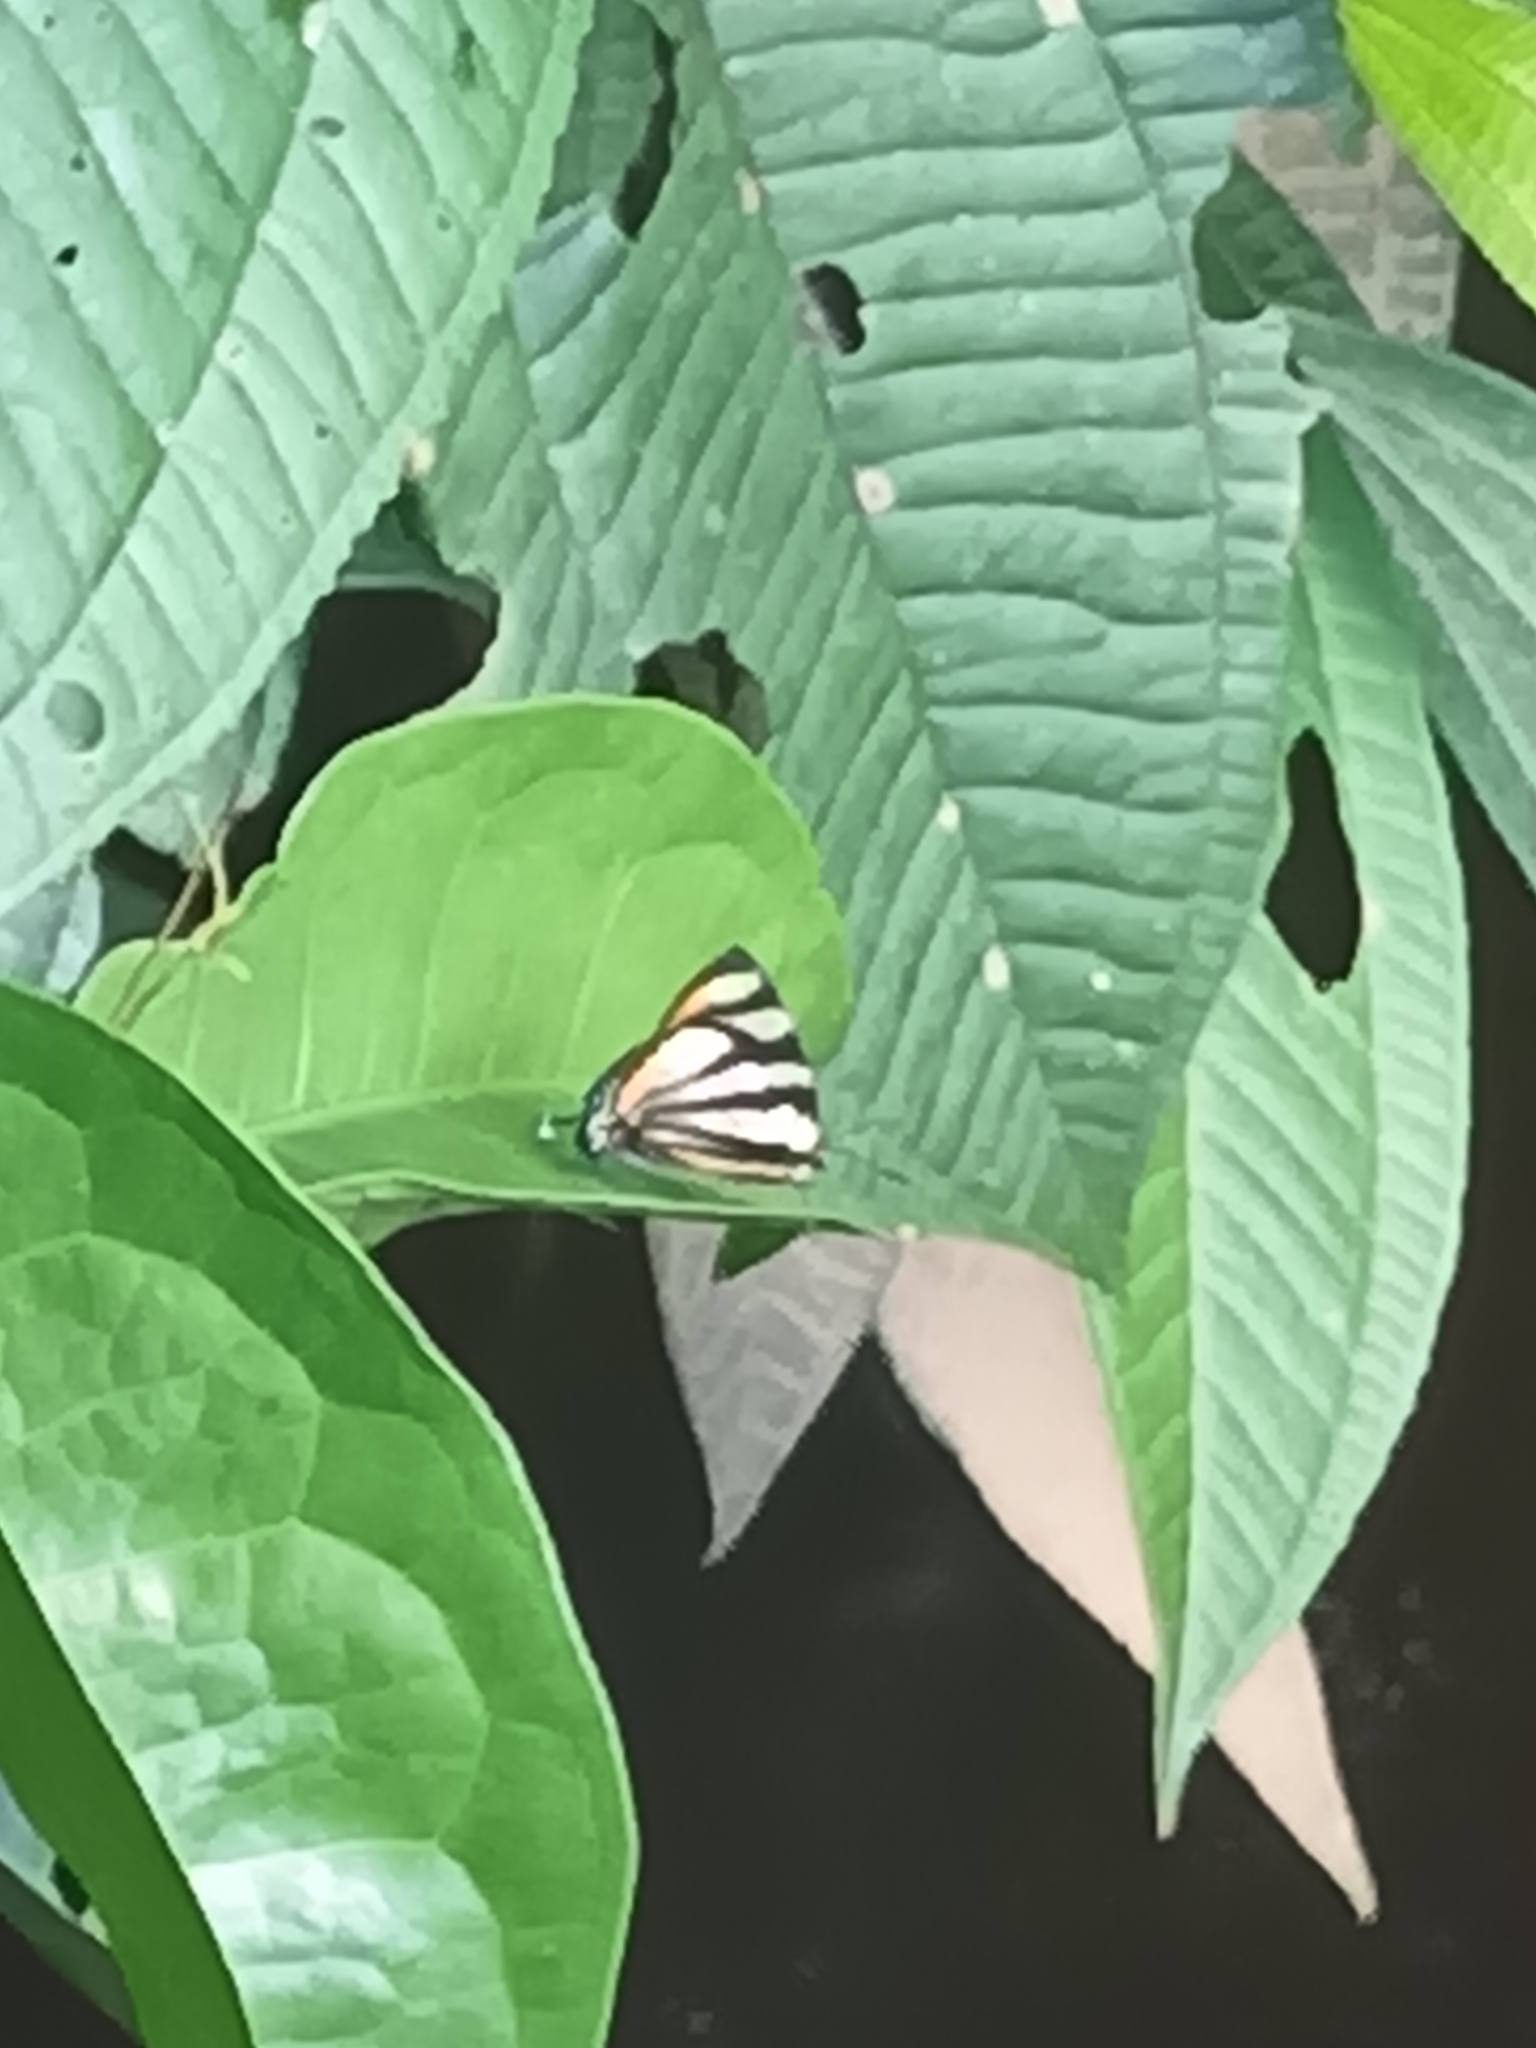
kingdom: Animalia
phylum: Arthropoda
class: Insecta
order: Lepidoptera
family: Lycaenidae
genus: Cycnus
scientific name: Cycnus phaleros
